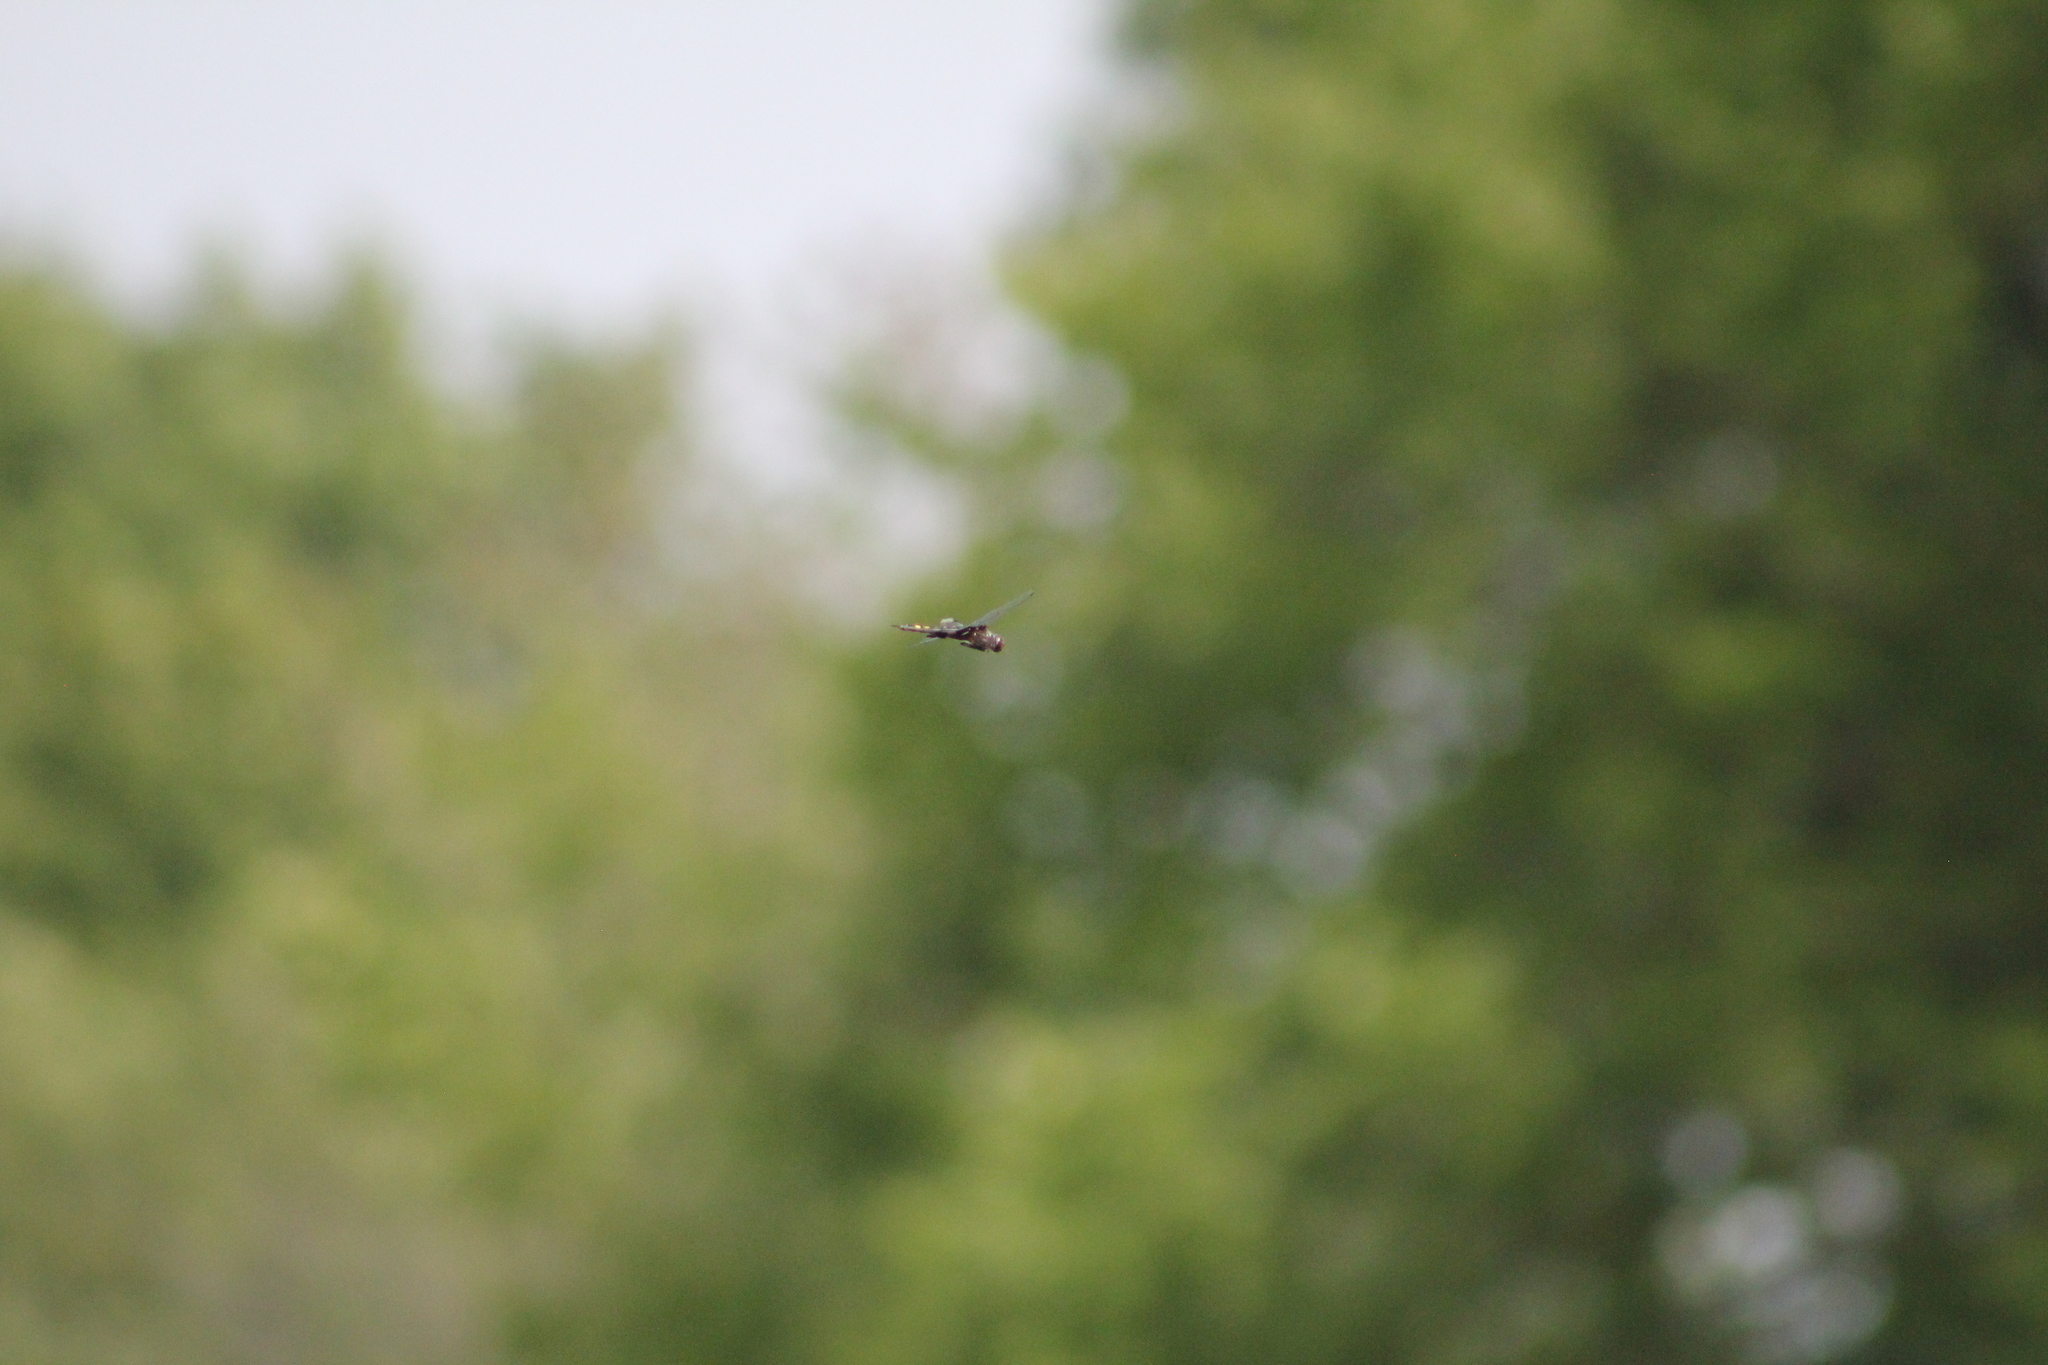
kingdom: Animalia
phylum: Arthropoda
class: Insecta
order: Odonata
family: Libellulidae
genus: Tramea
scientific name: Tramea lacerata
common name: Black saddlebags
